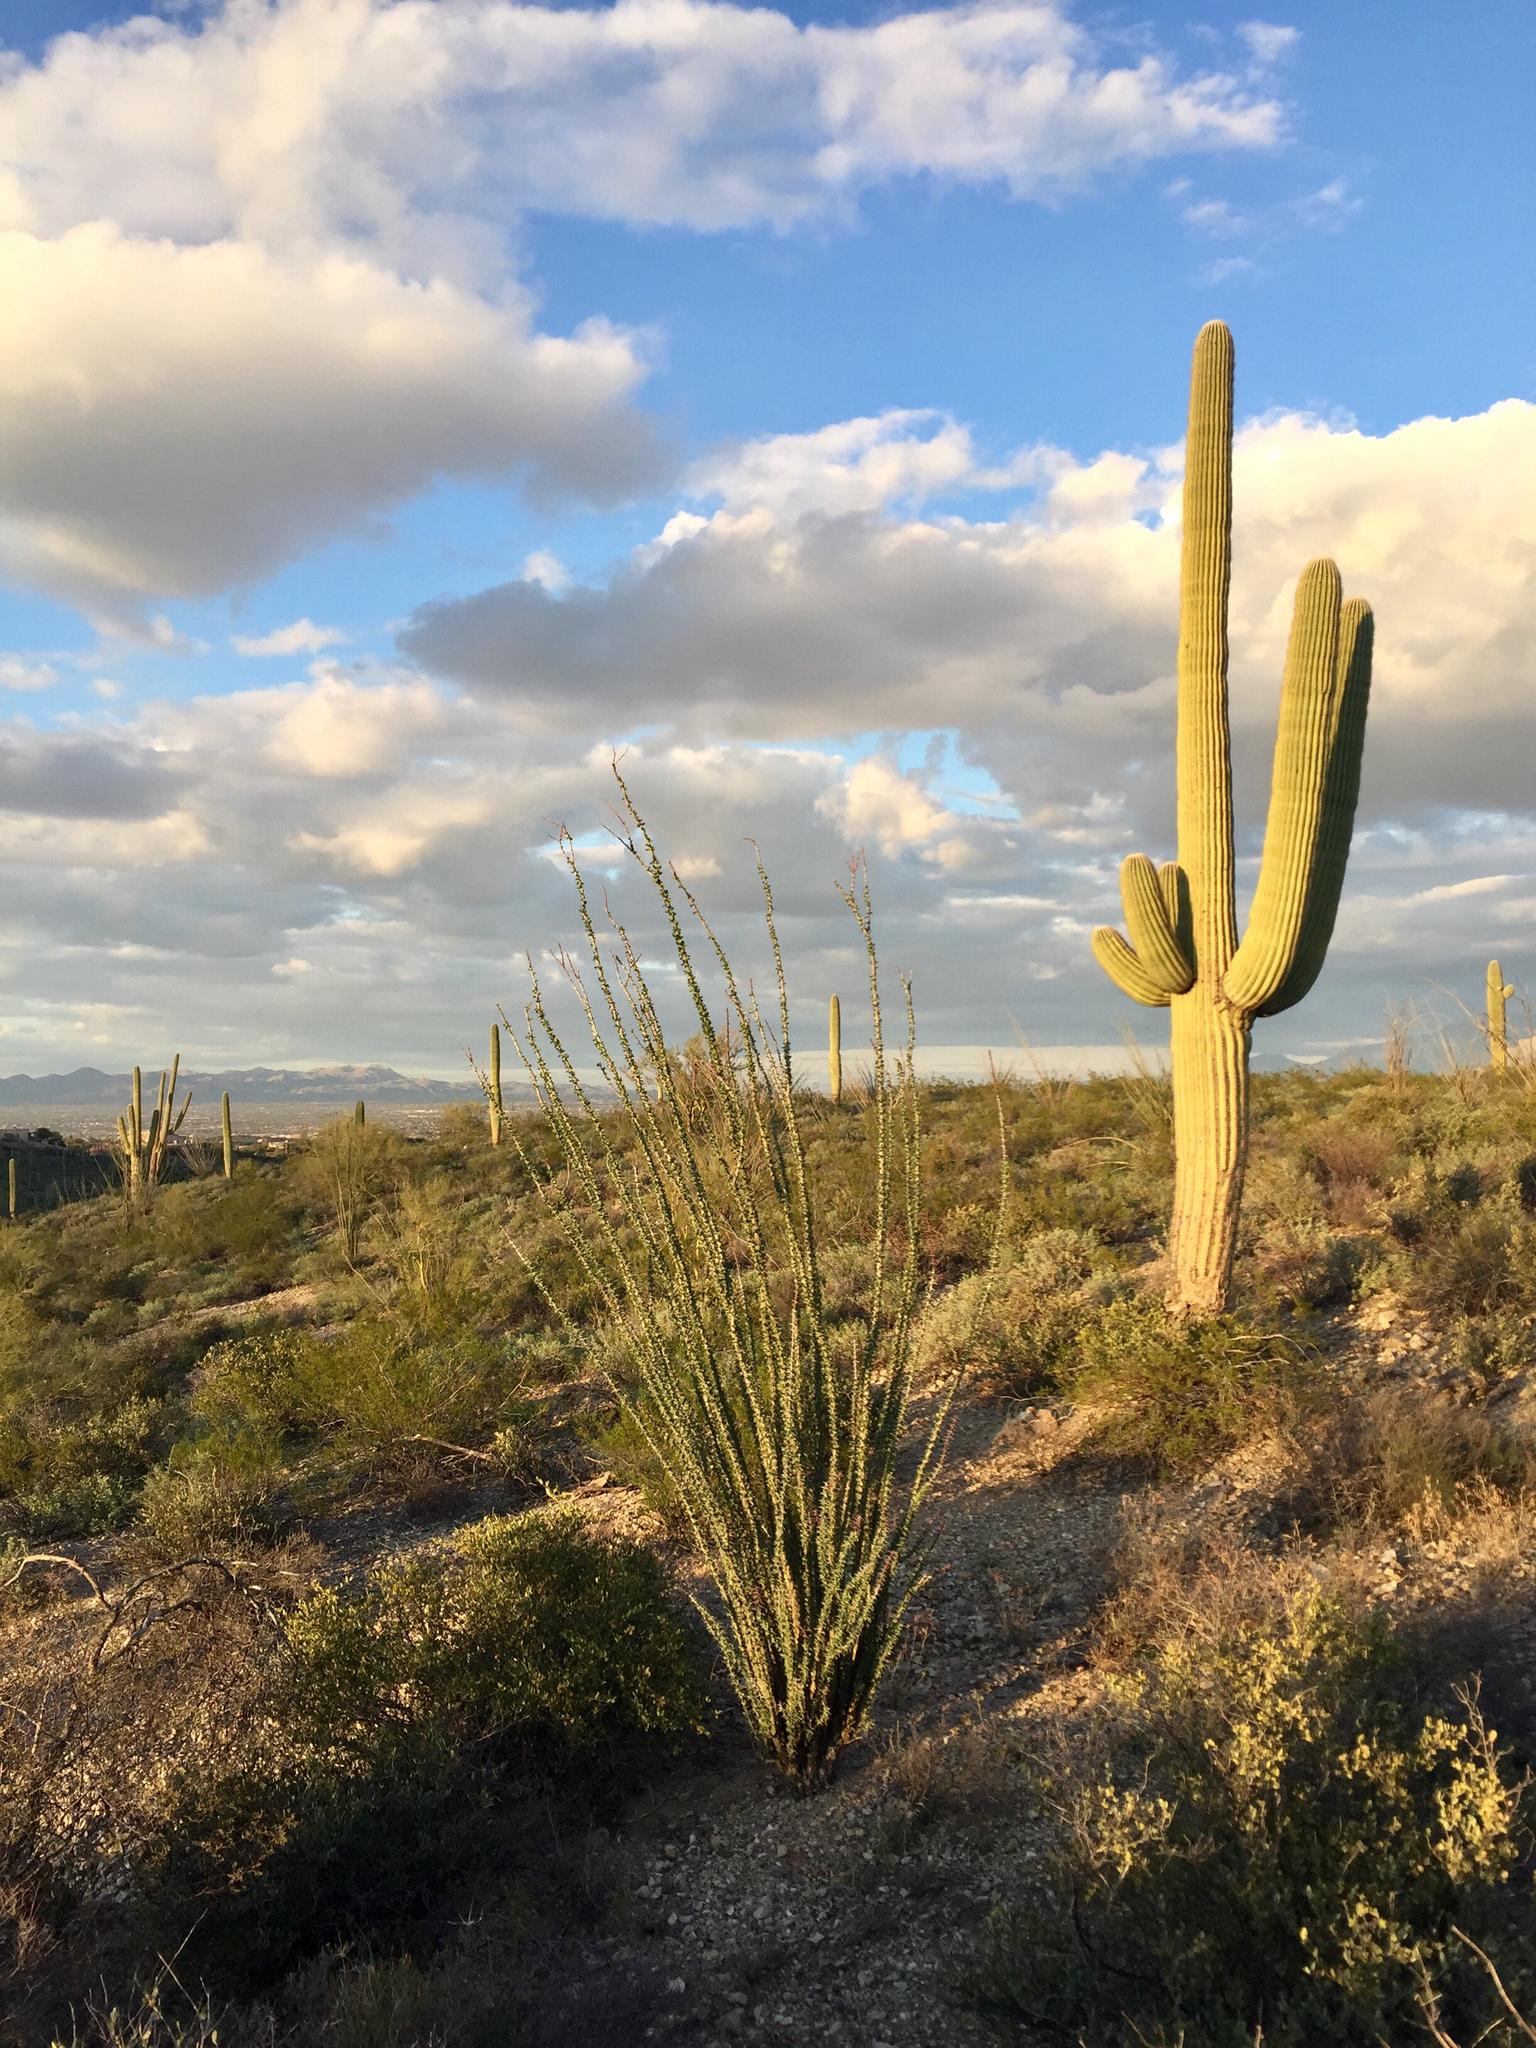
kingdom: Plantae
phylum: Tracheophyta
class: Magnoliopsida
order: Ericales
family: Fouquieriaceae
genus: Fouquieria
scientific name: Fouquieria splendens
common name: Vine-cactus
